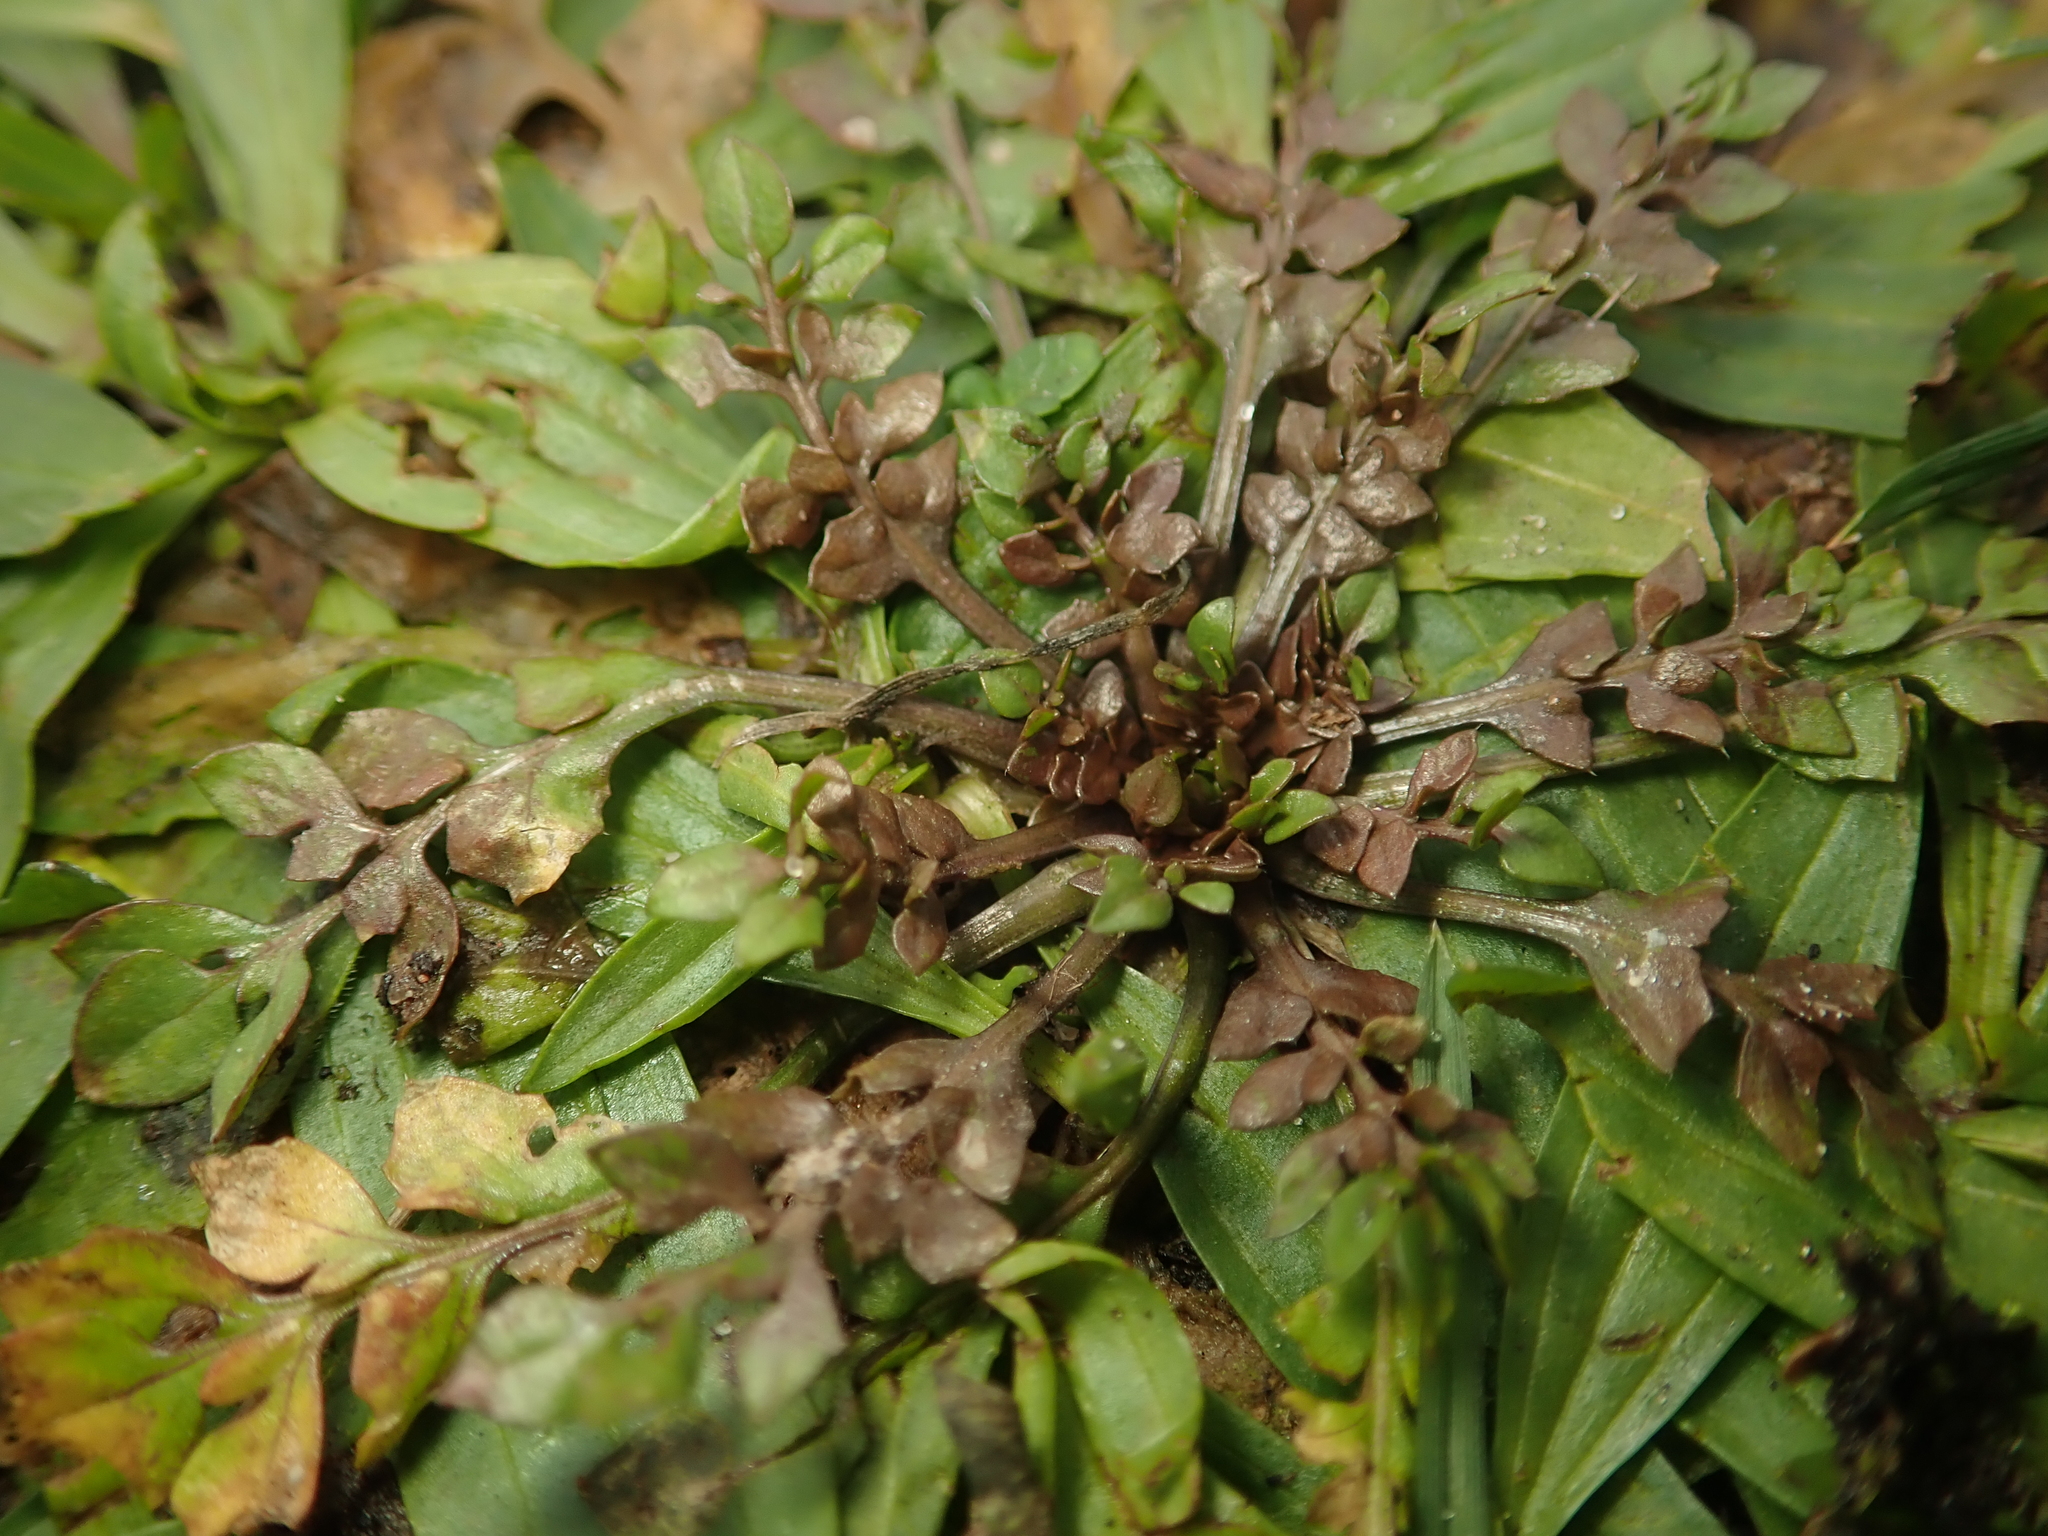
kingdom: Plantae
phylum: Tracheophyta
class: Magnoliopsida
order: Brassicales
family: Brassicaceae
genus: Capsella
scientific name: Capsella bursa-pastoris
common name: Shepherd's purse
